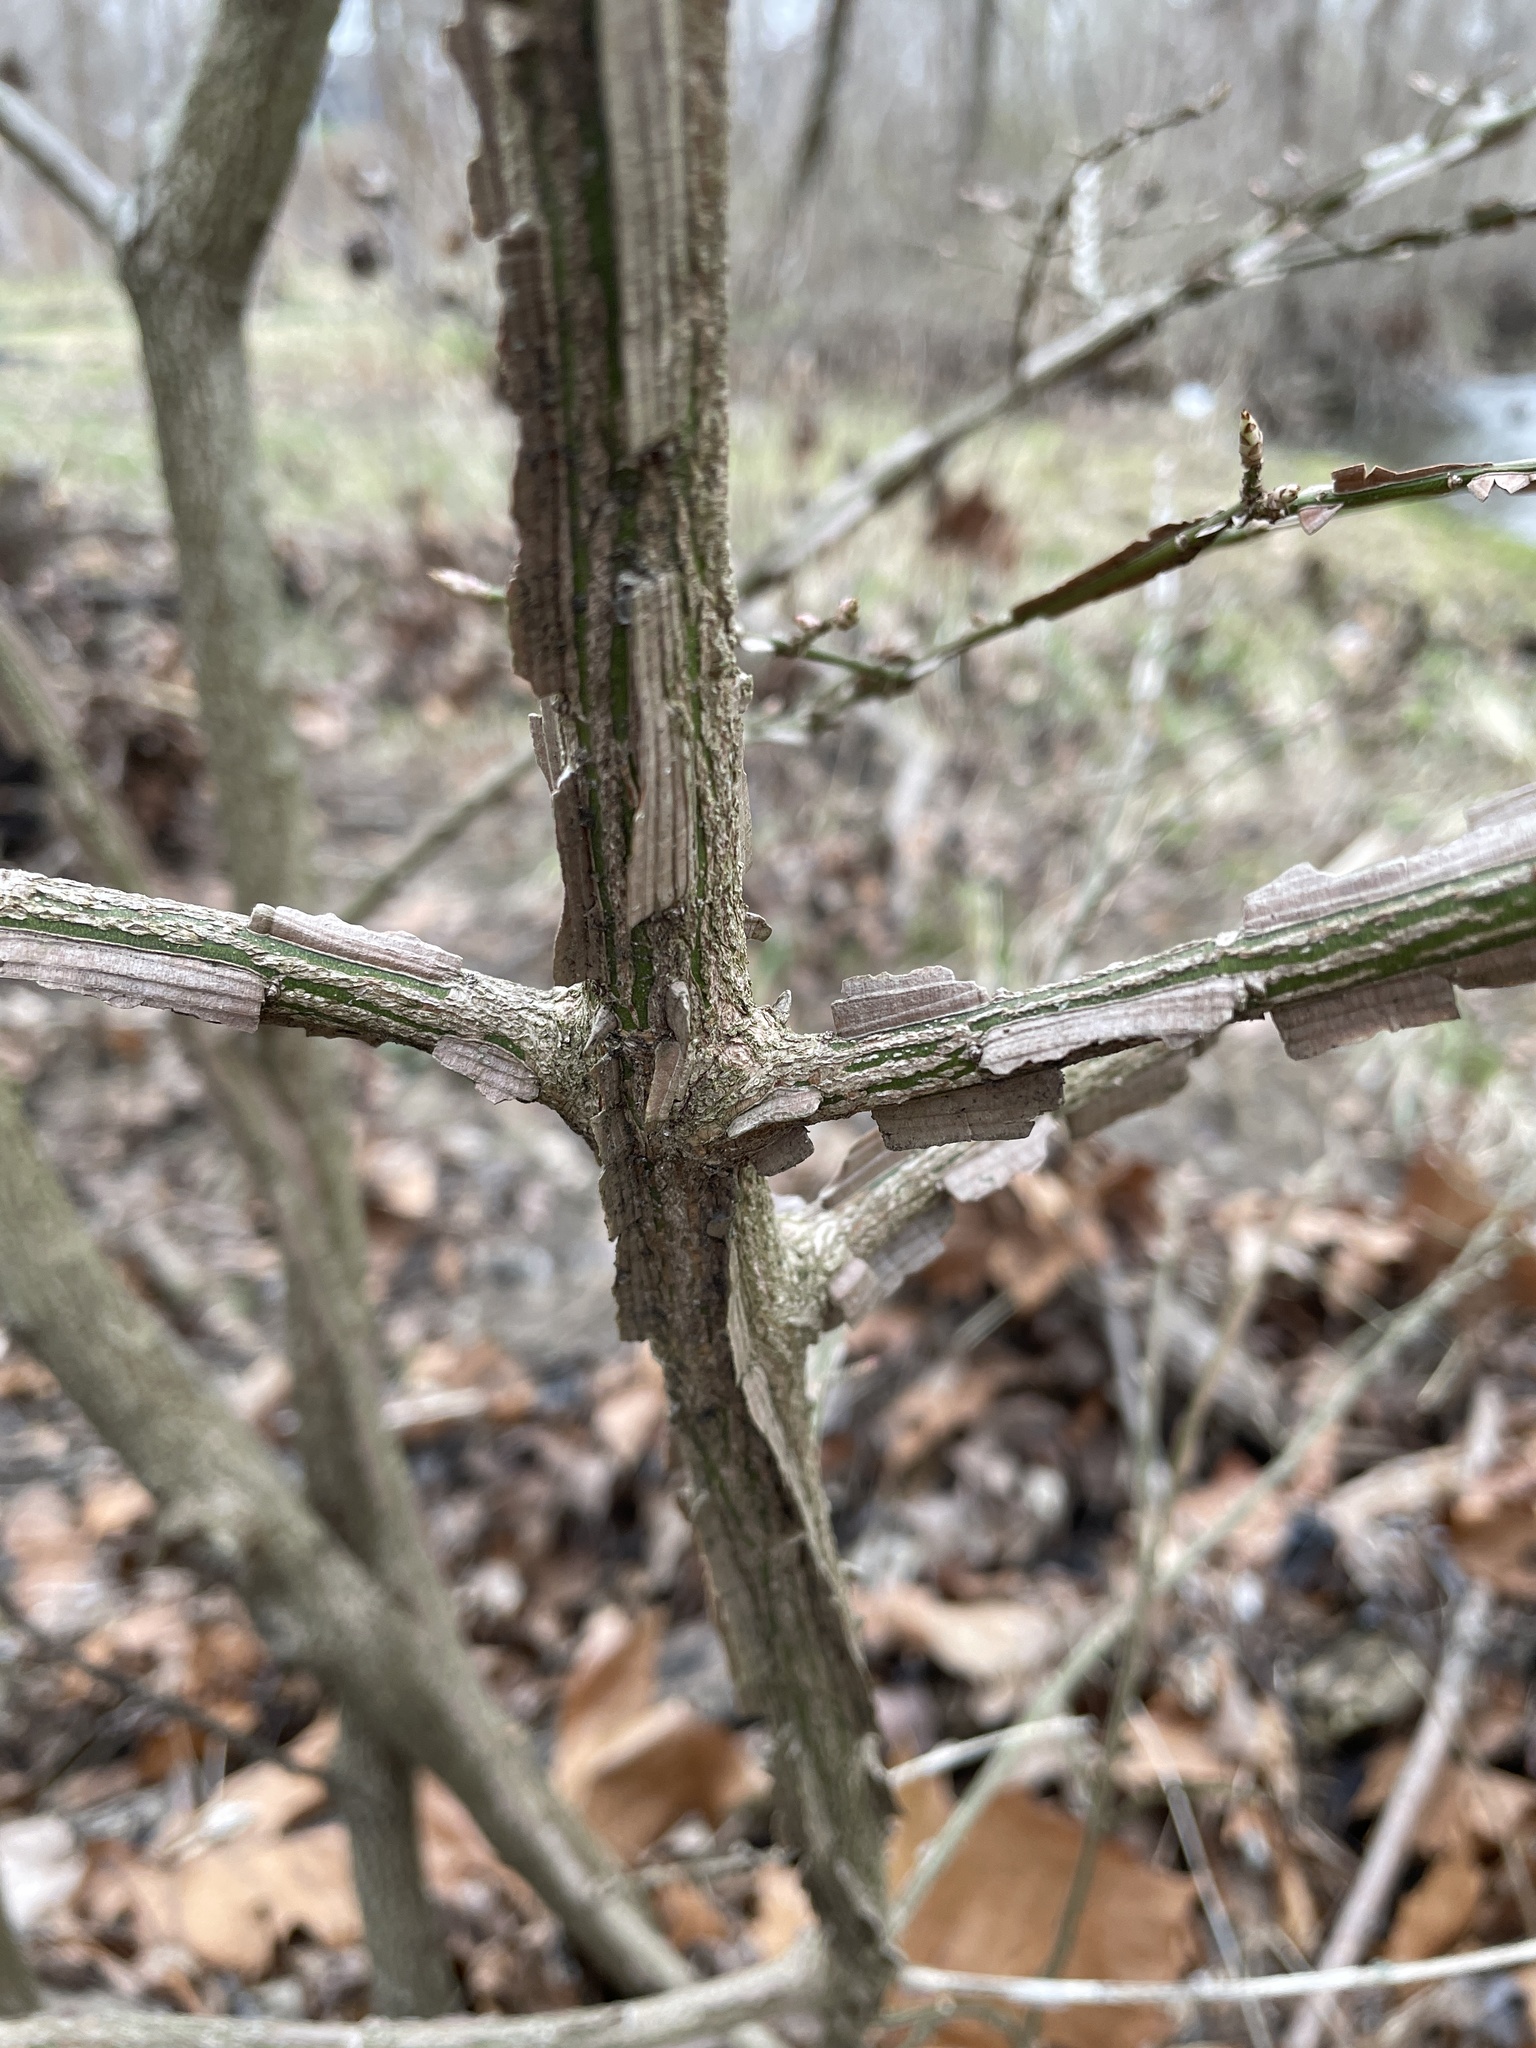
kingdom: Plantae
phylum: Tracheophyta
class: Magnoliopsida
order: Celastrales
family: Celastraceae
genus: Euonymus
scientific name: Euonymus alatus
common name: Winged euonymus
